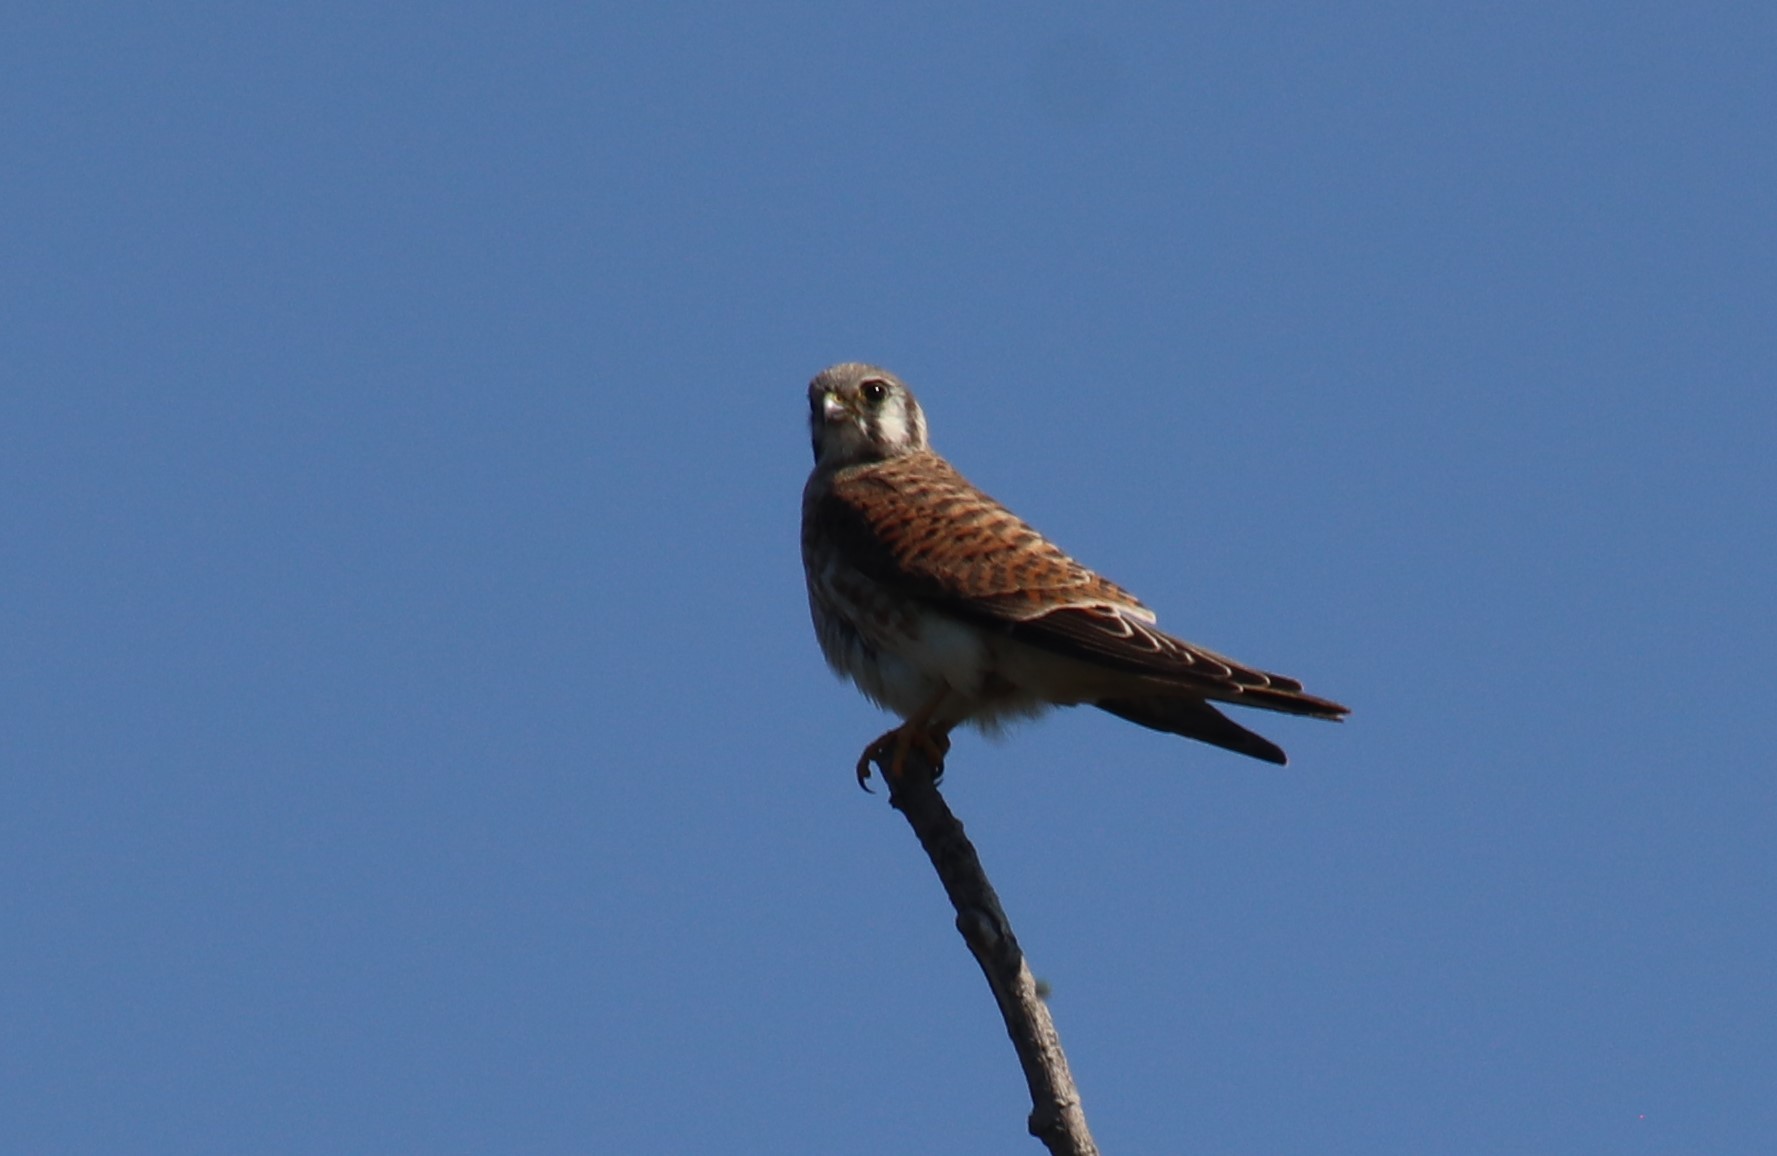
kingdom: Animalia
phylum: Chordata
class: Aves
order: Falconiformes
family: Falconidae
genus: Falco
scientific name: Falco sparverius
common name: American kestrel
